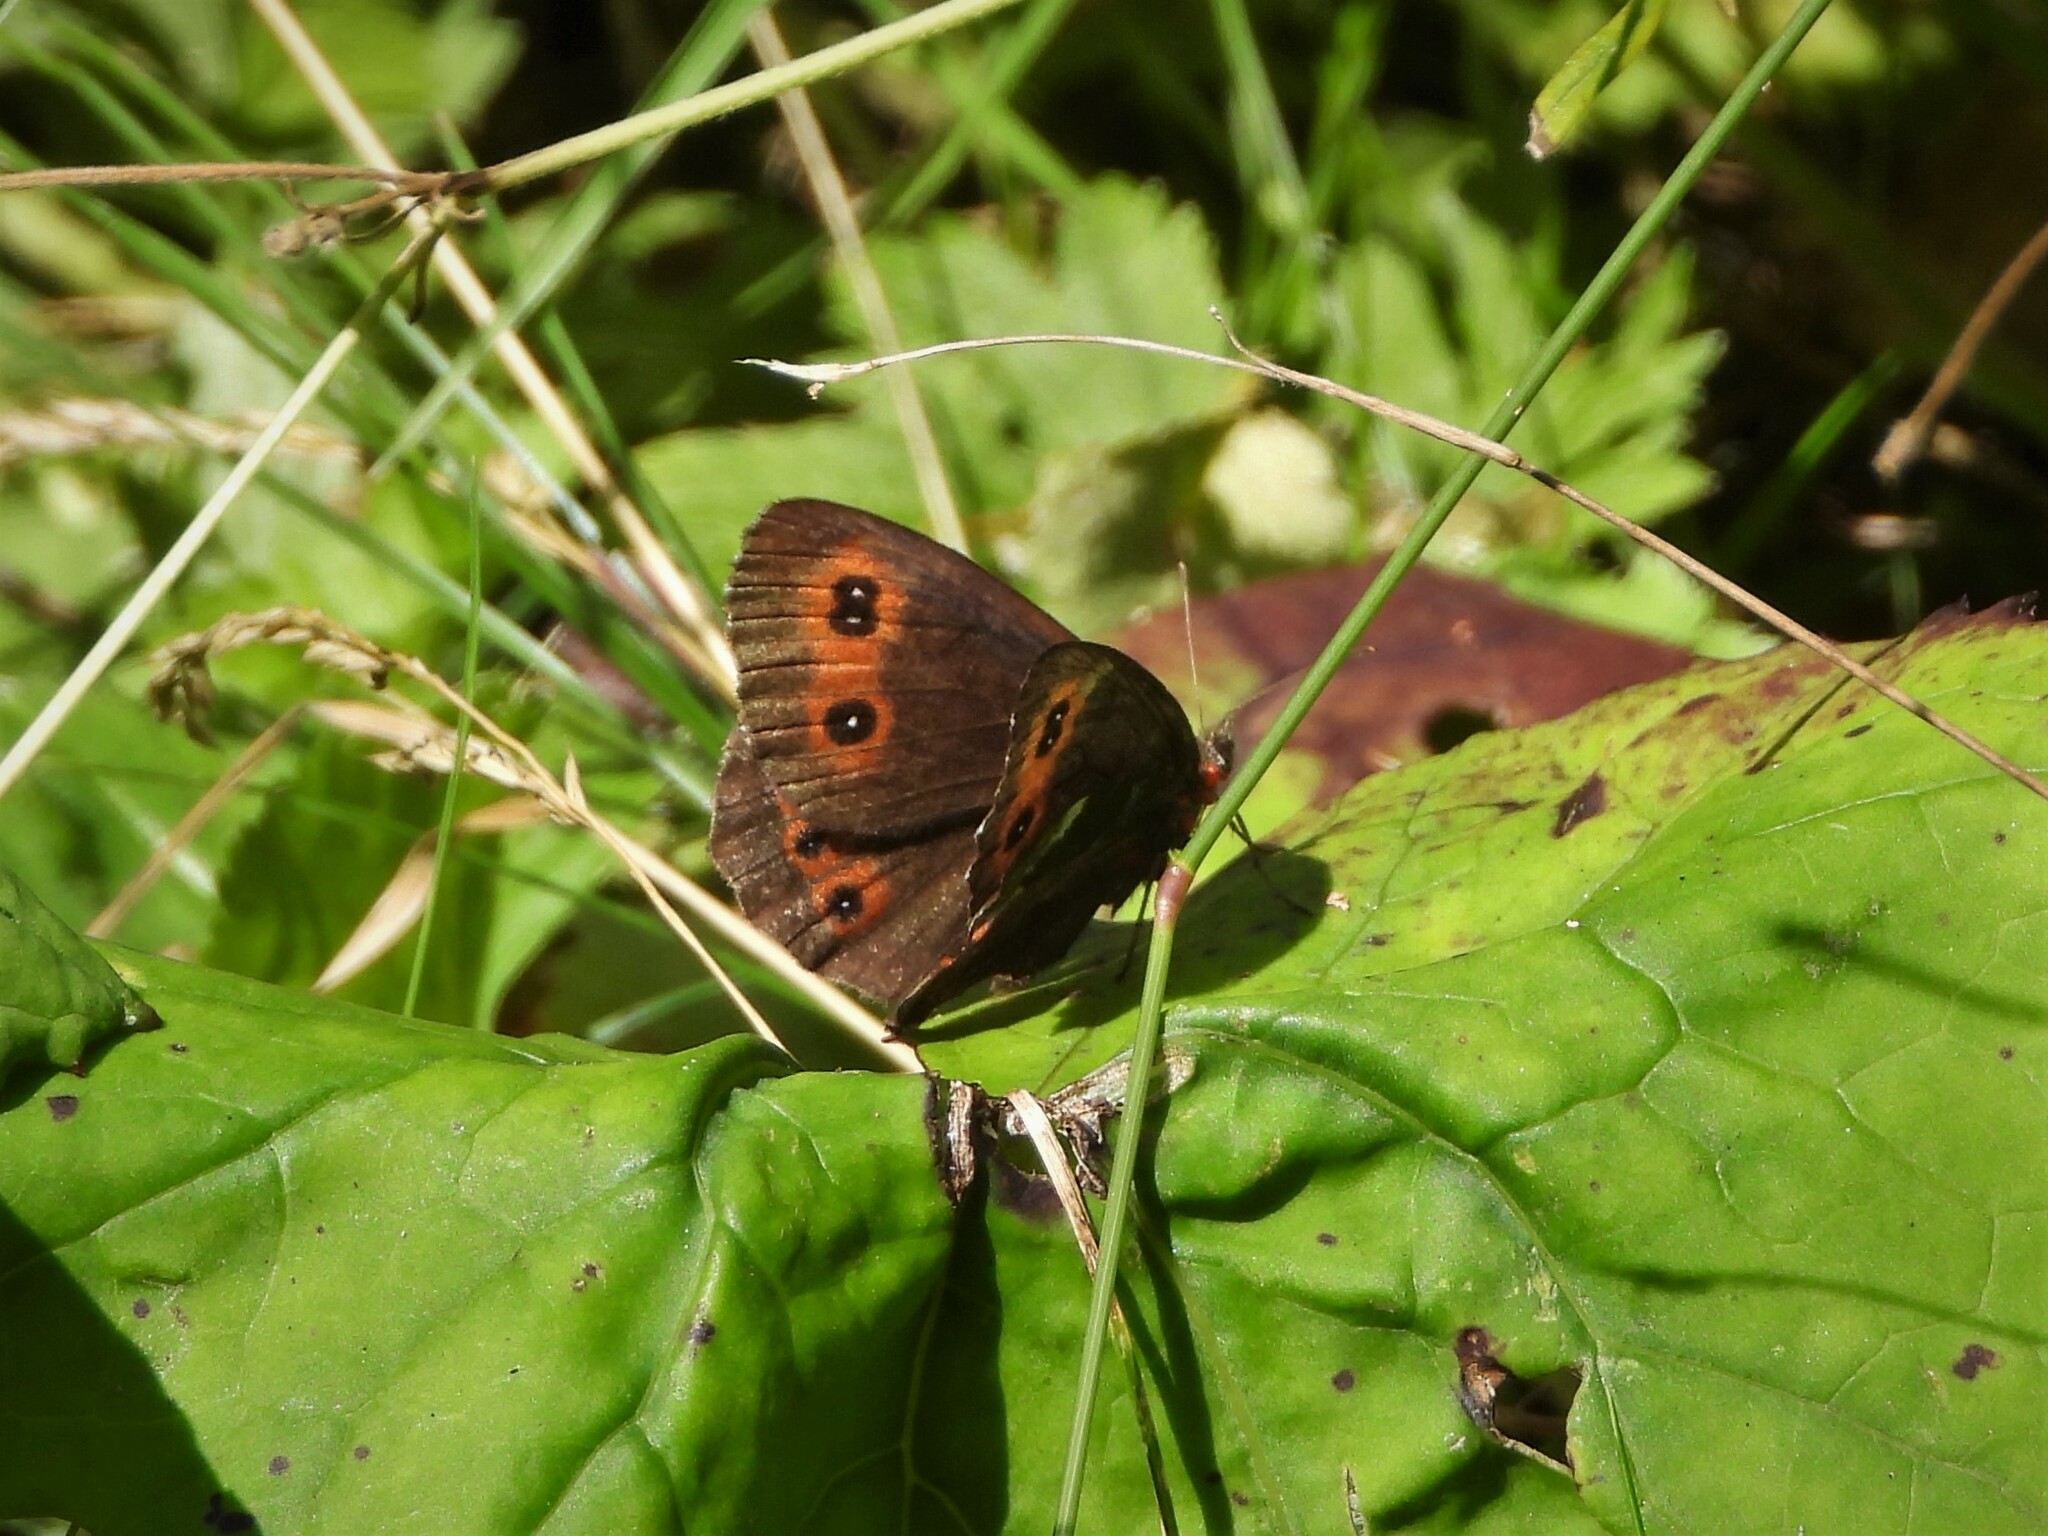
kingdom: Animalia
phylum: Arthropoda
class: Insecta
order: Lepidoptera
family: Nymphalidae
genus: Erebia
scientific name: Erebia ligea
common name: Arran brown
